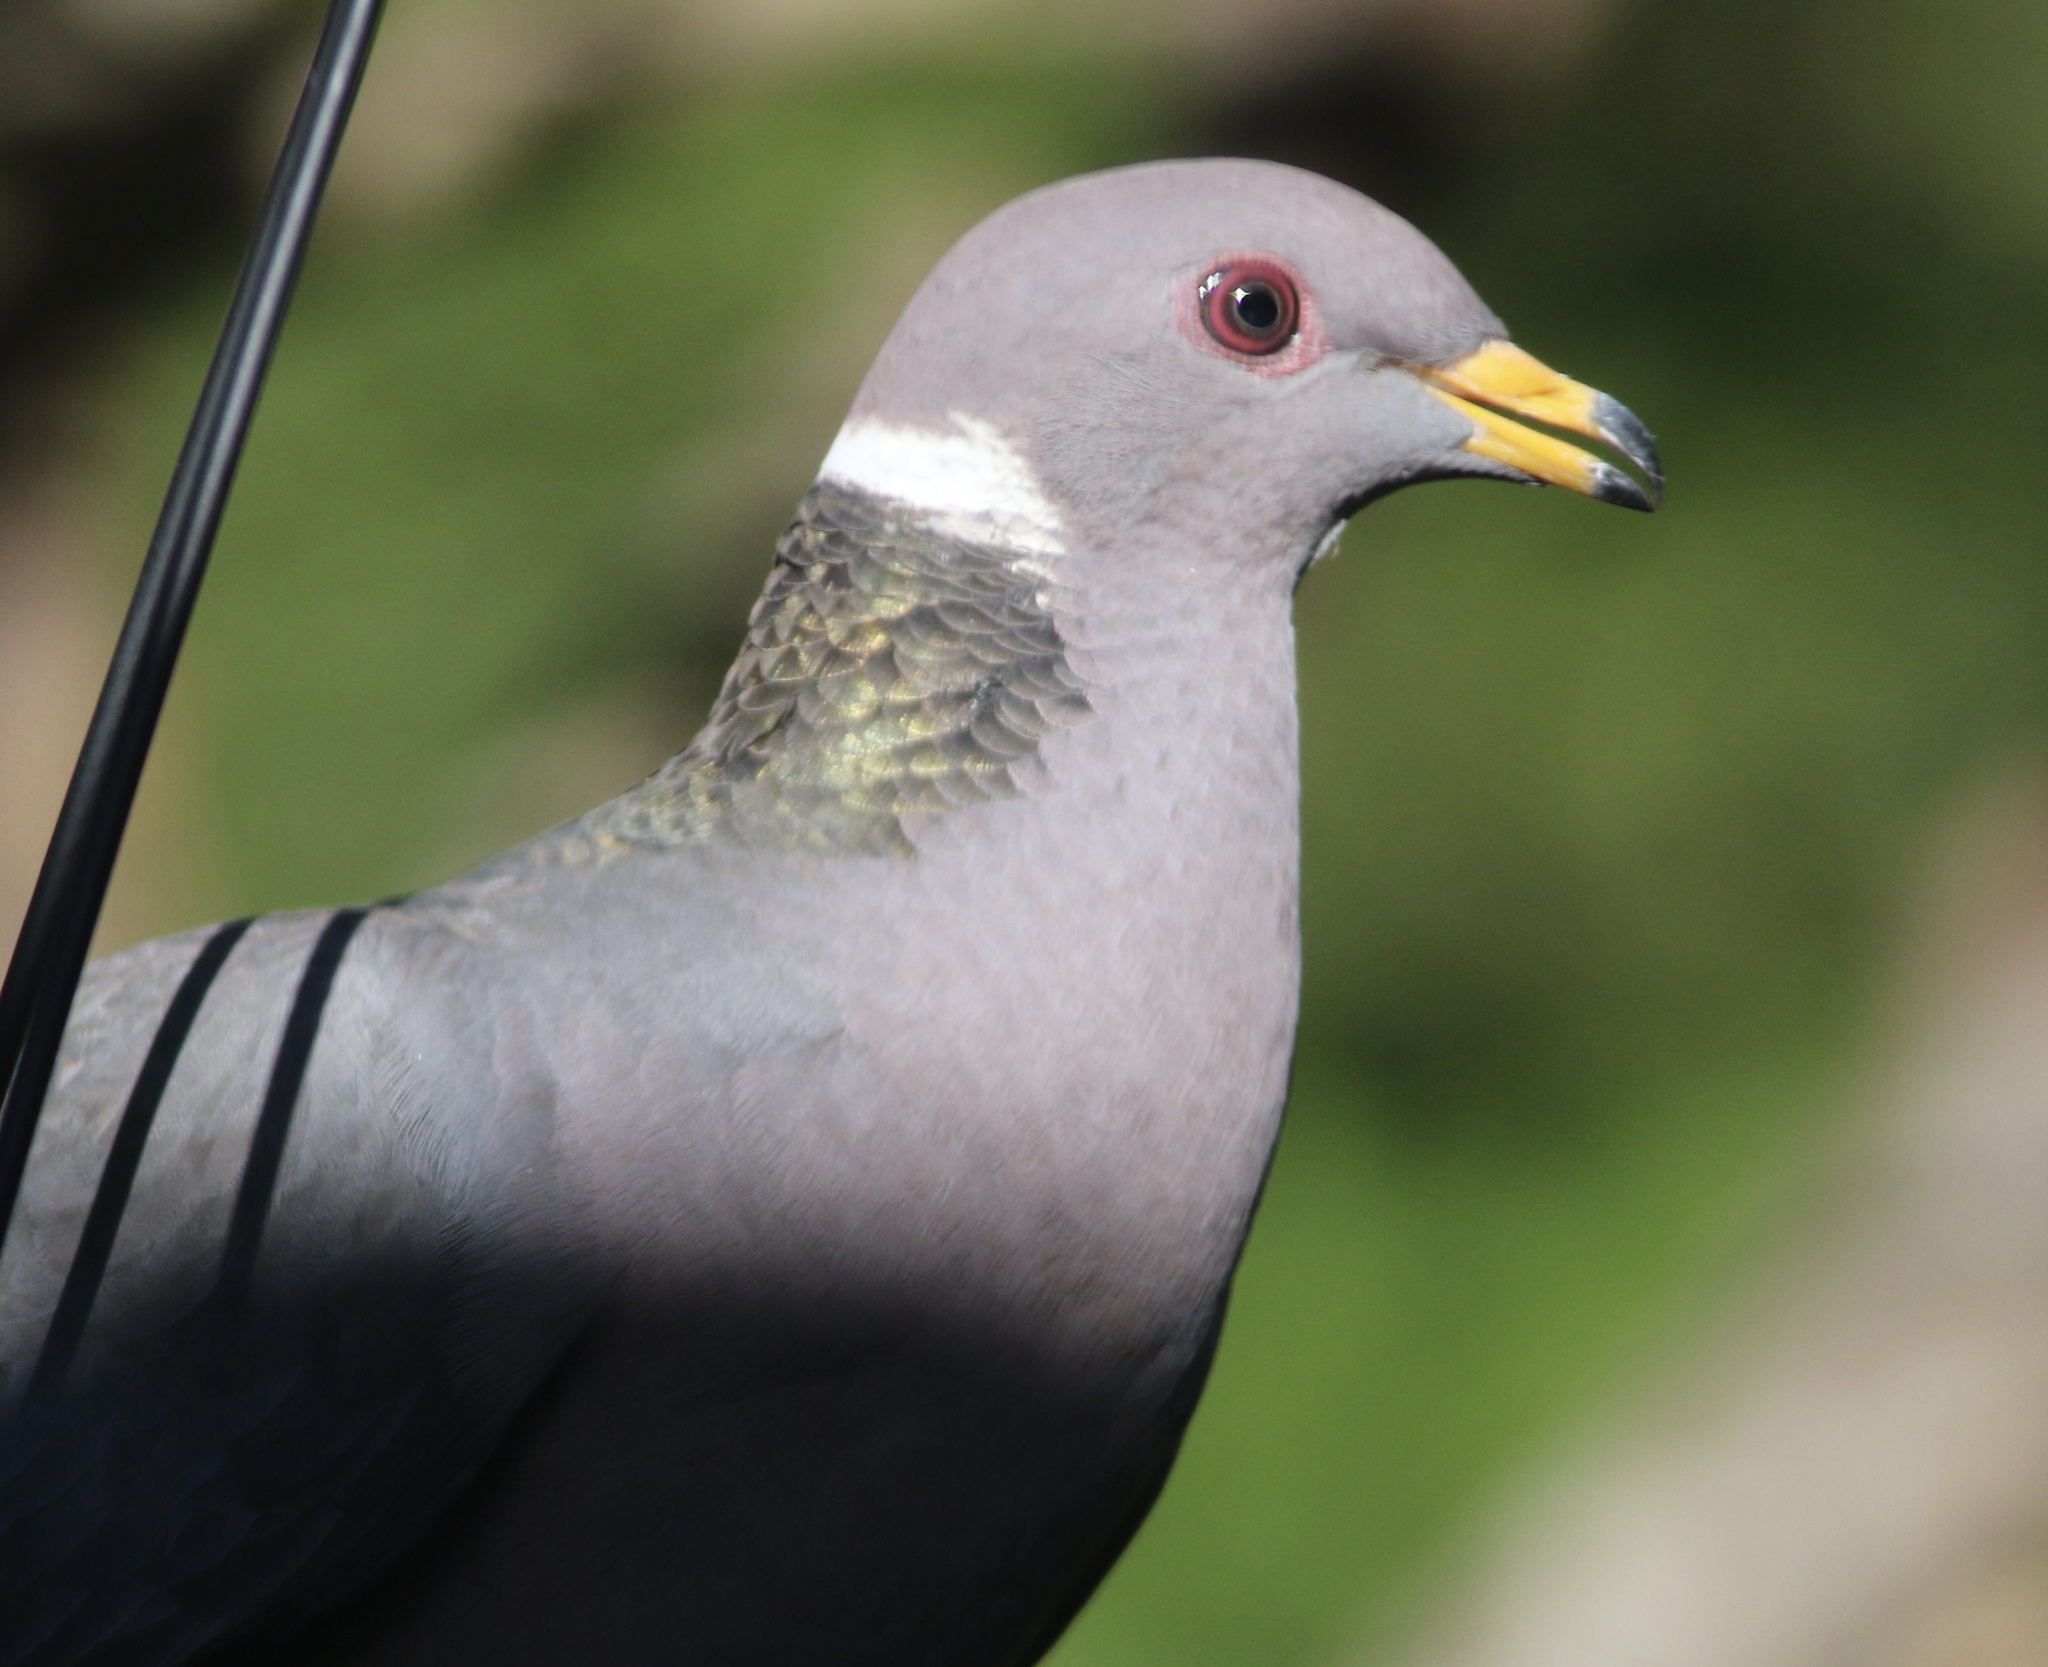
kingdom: Animalia
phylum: Chordata
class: Aves
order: Columbiformes
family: Columbidae
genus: Patagioenas
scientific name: Patagioenas fasciata
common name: Band-tailed pigeon
